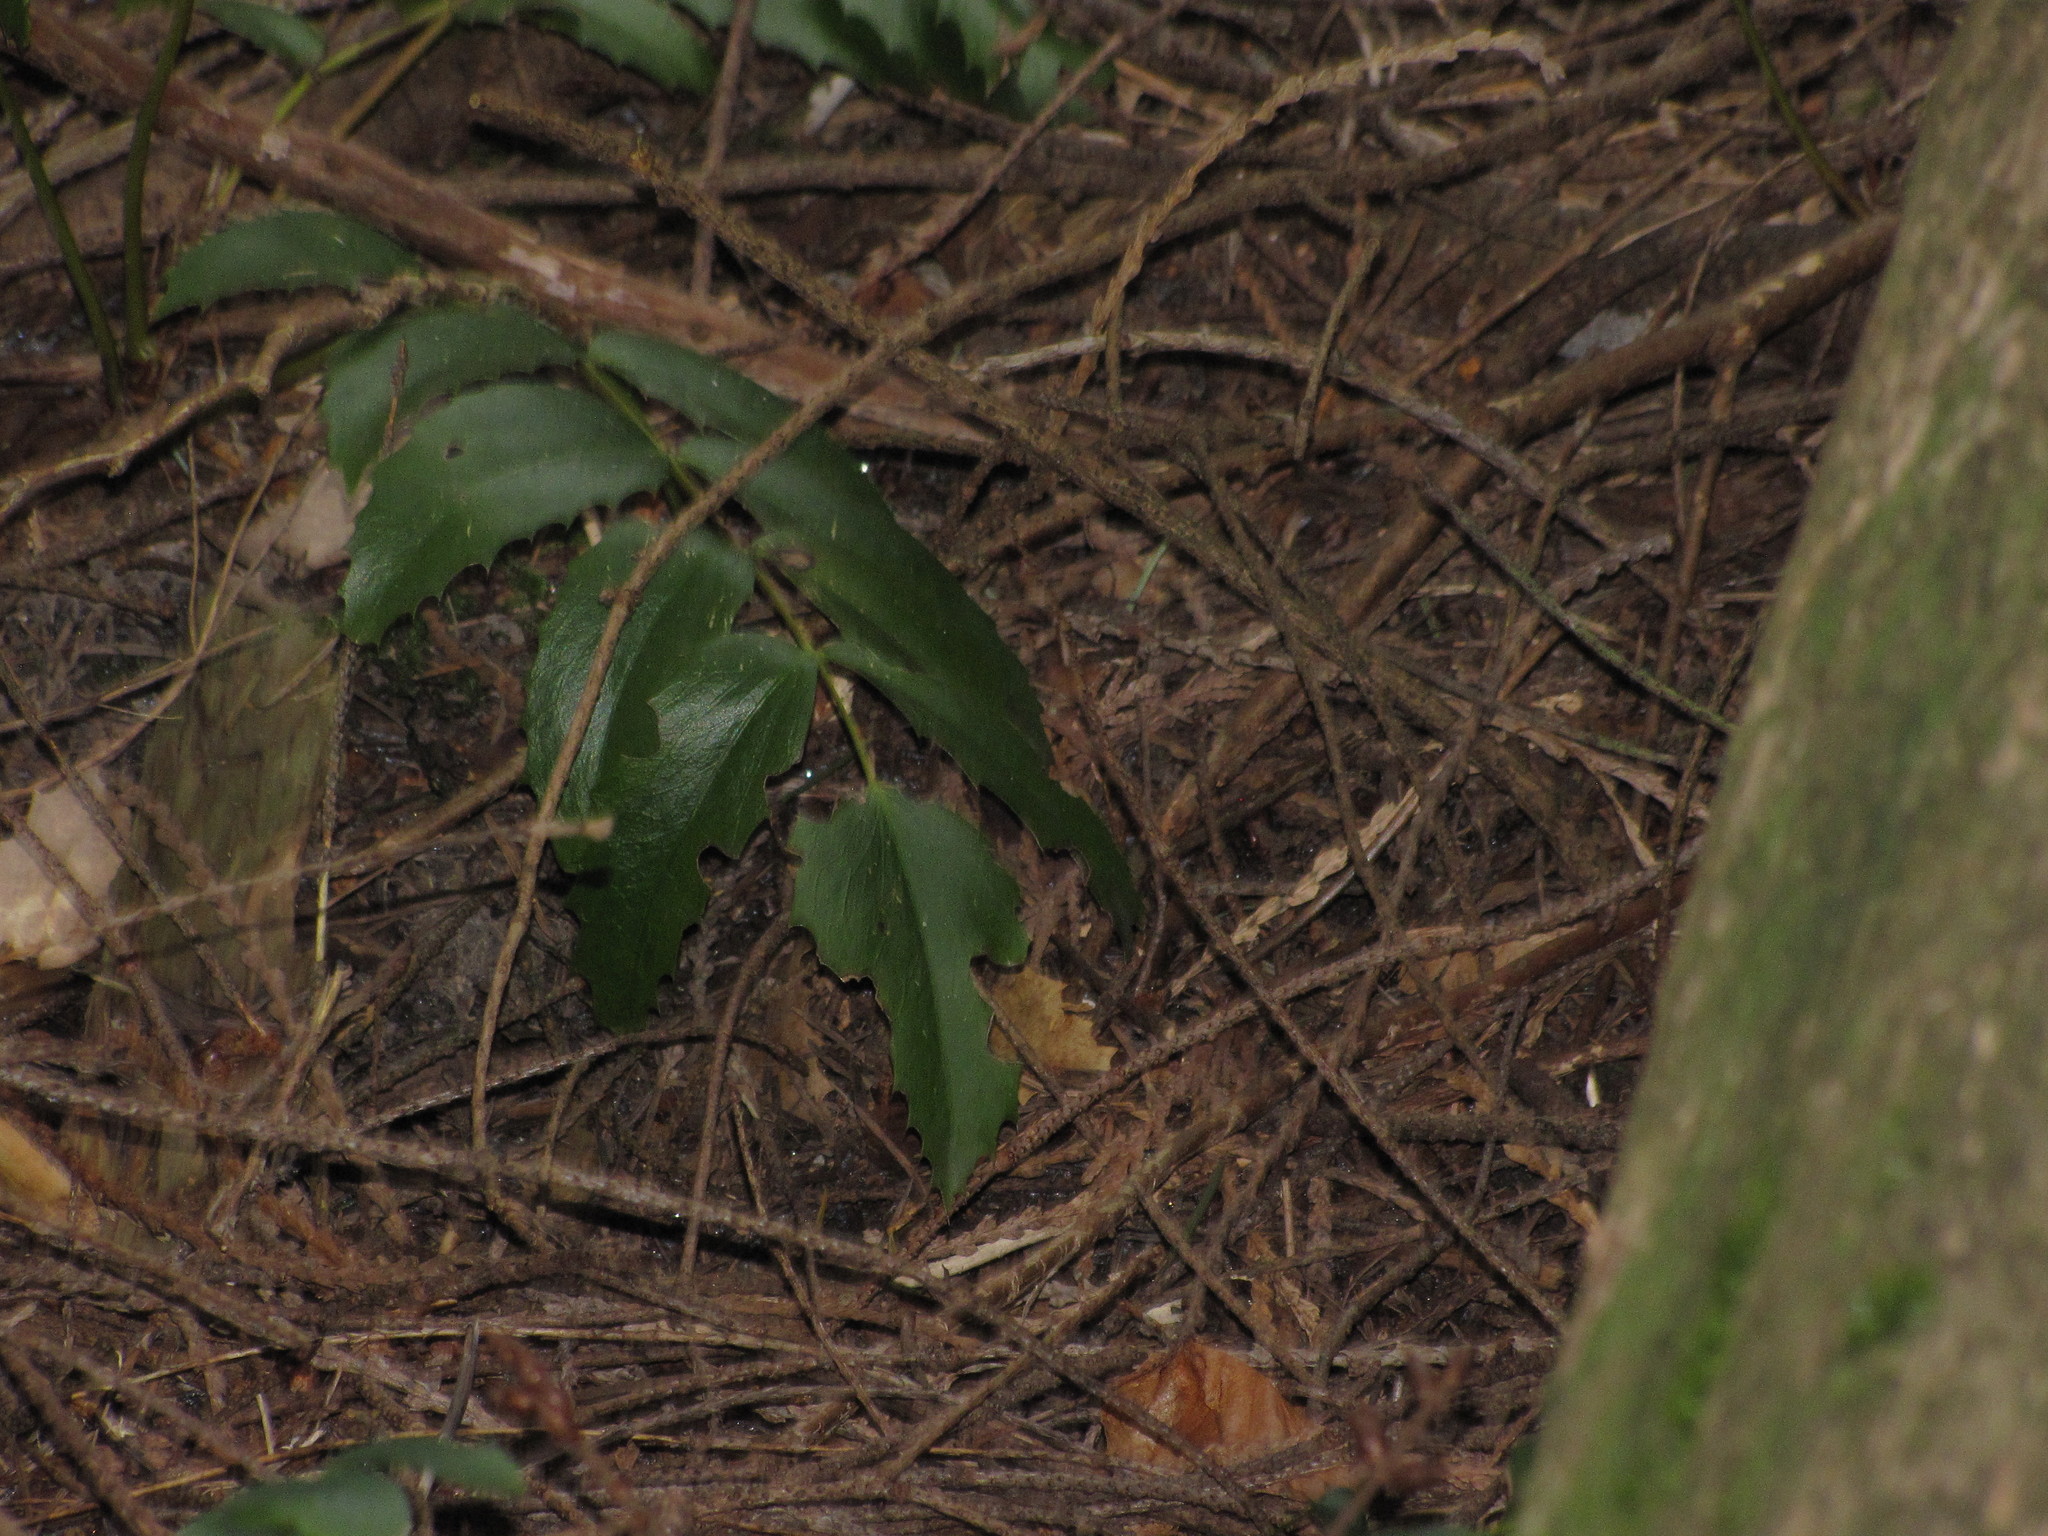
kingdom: Plantae
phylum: Tracheophyta
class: Magnoliopsida
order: Ranunculales
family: Berberidaceae
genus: Mahonia
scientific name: Mahonia nervosa
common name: Cascade oregon-grape
